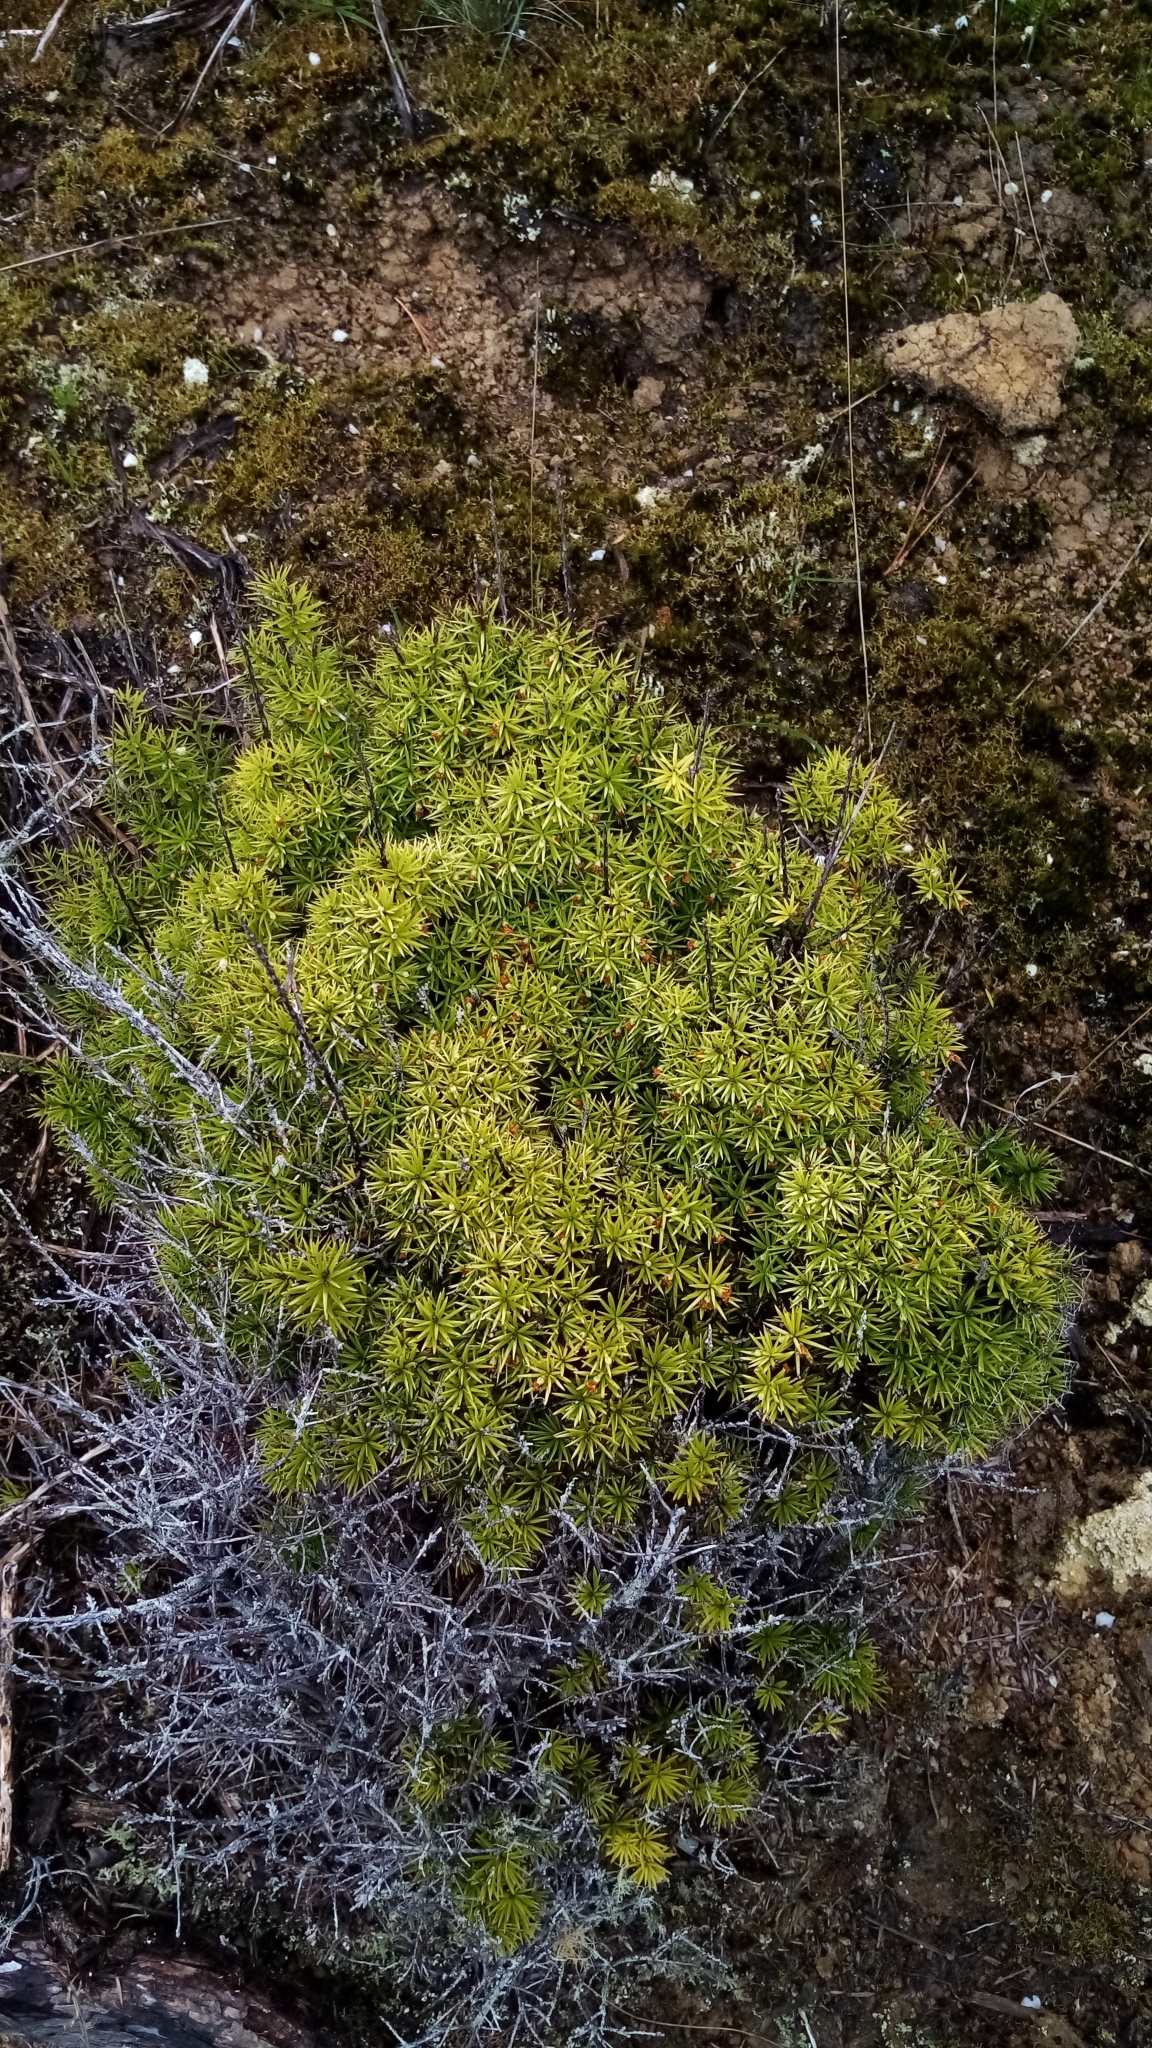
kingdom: Plantae
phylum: Tracheophyta
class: Magnoliopsida
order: Ericales
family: Ericaceae
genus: Leptecophylla
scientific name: Leptecophylla juniperina
